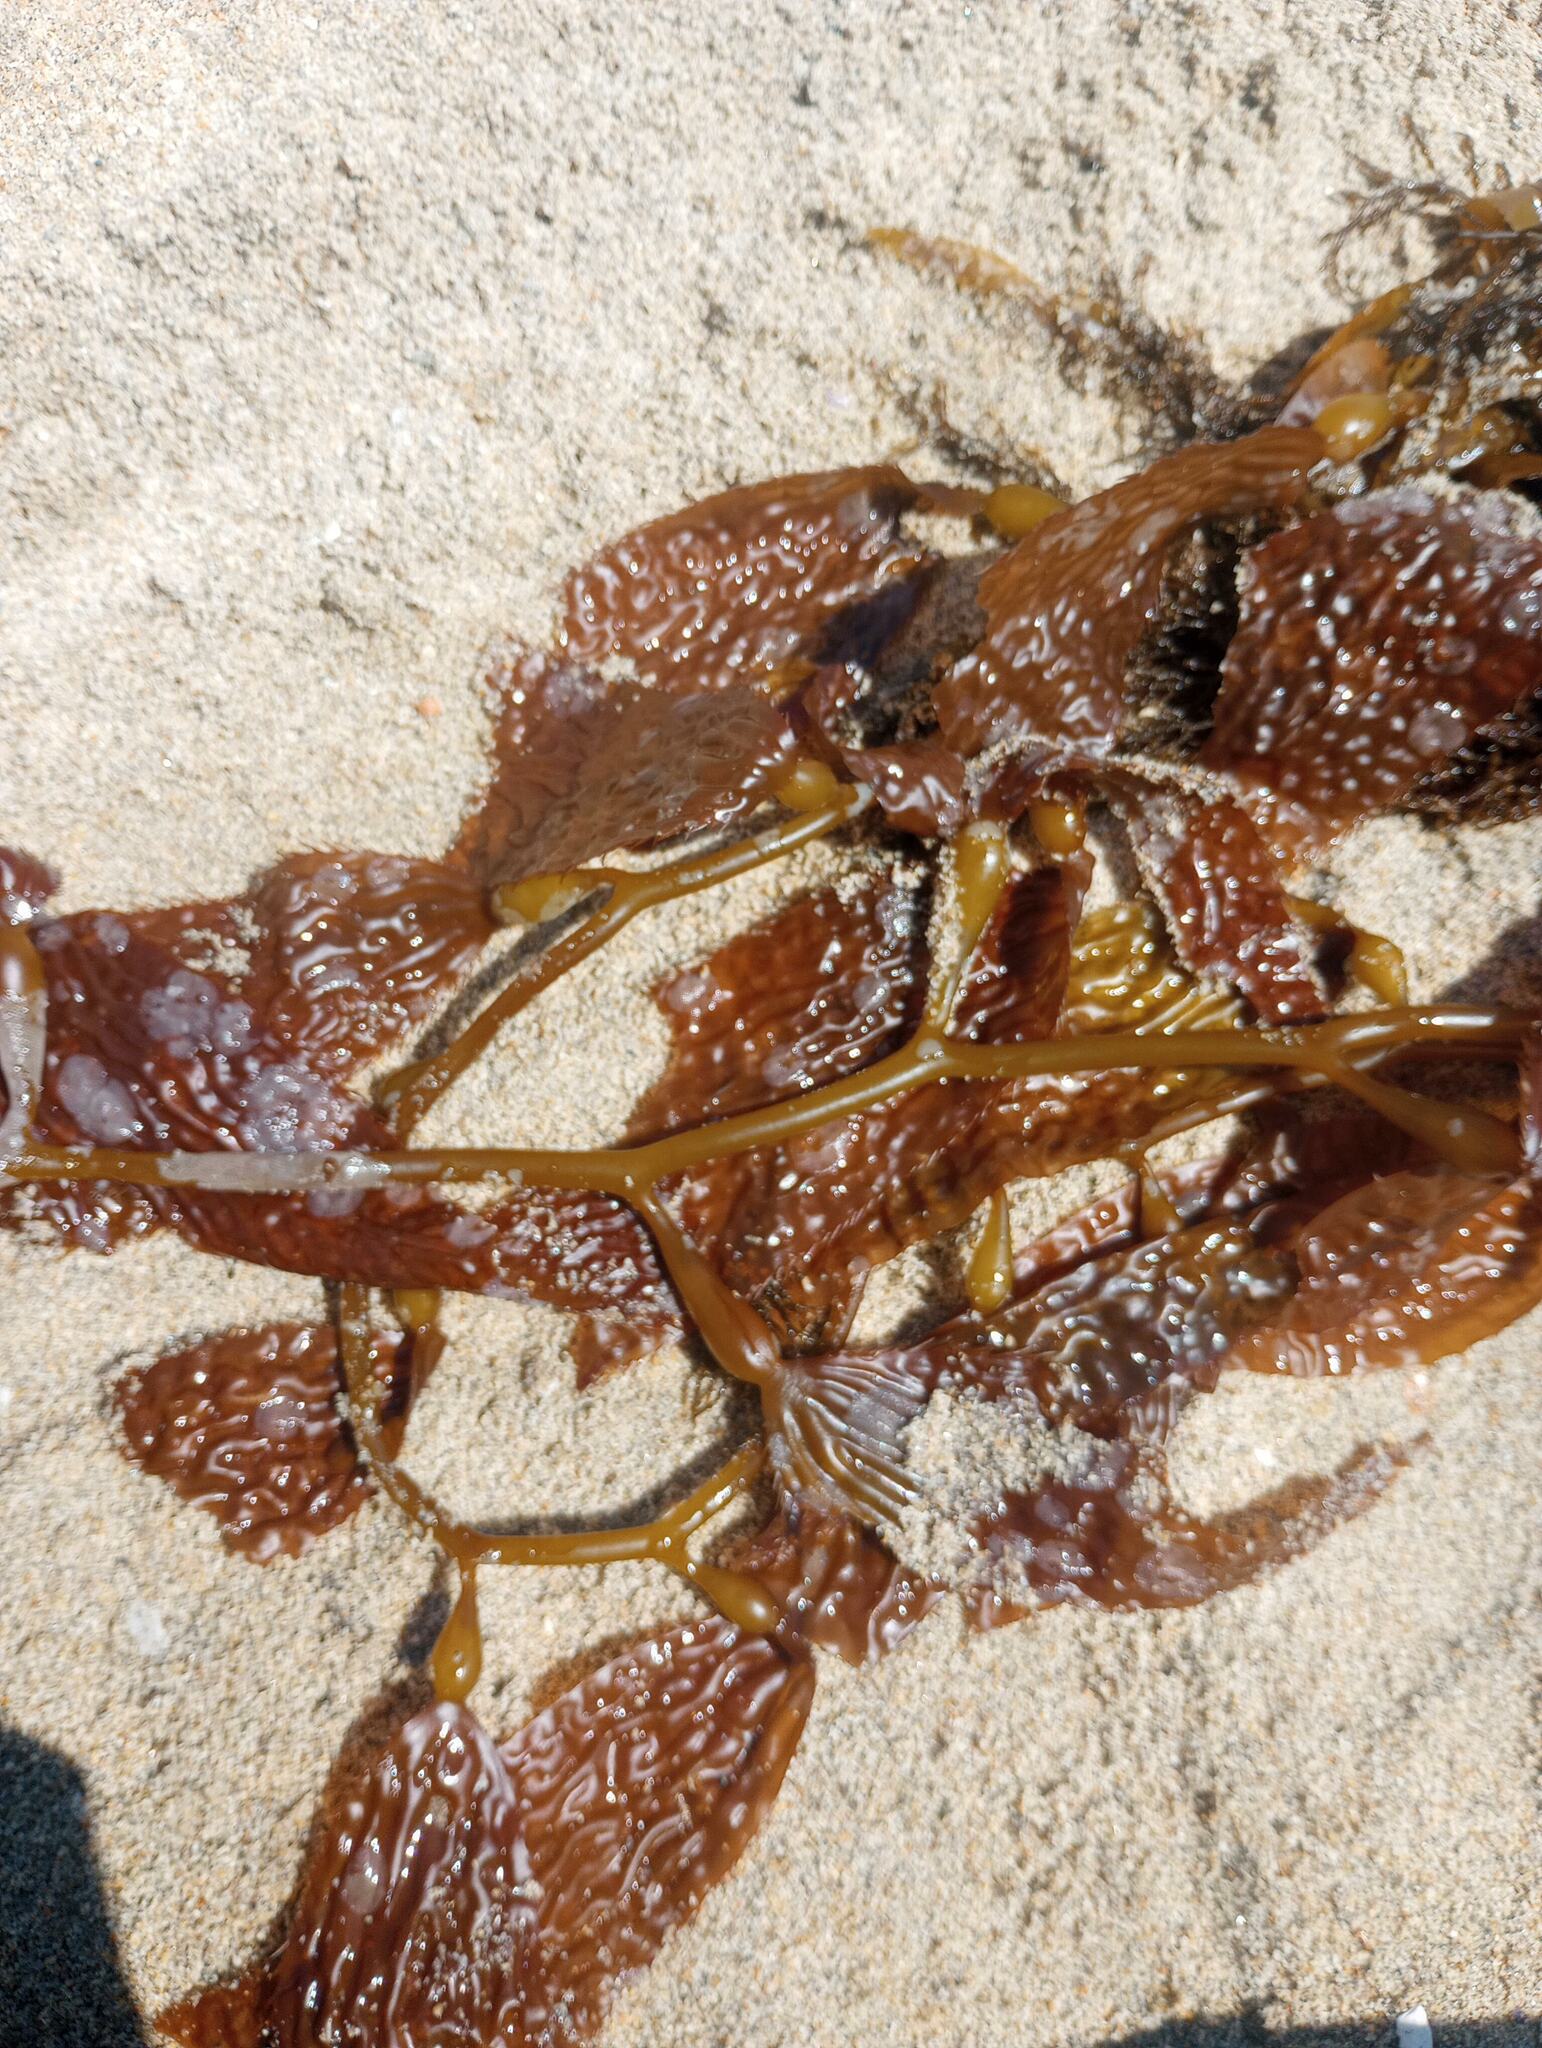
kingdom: Chromista
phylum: Ochrophyta
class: Phaeophyceae
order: Laminariales
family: Laminariaceae
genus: Macrocystis
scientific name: Macrocystis pyrifera
